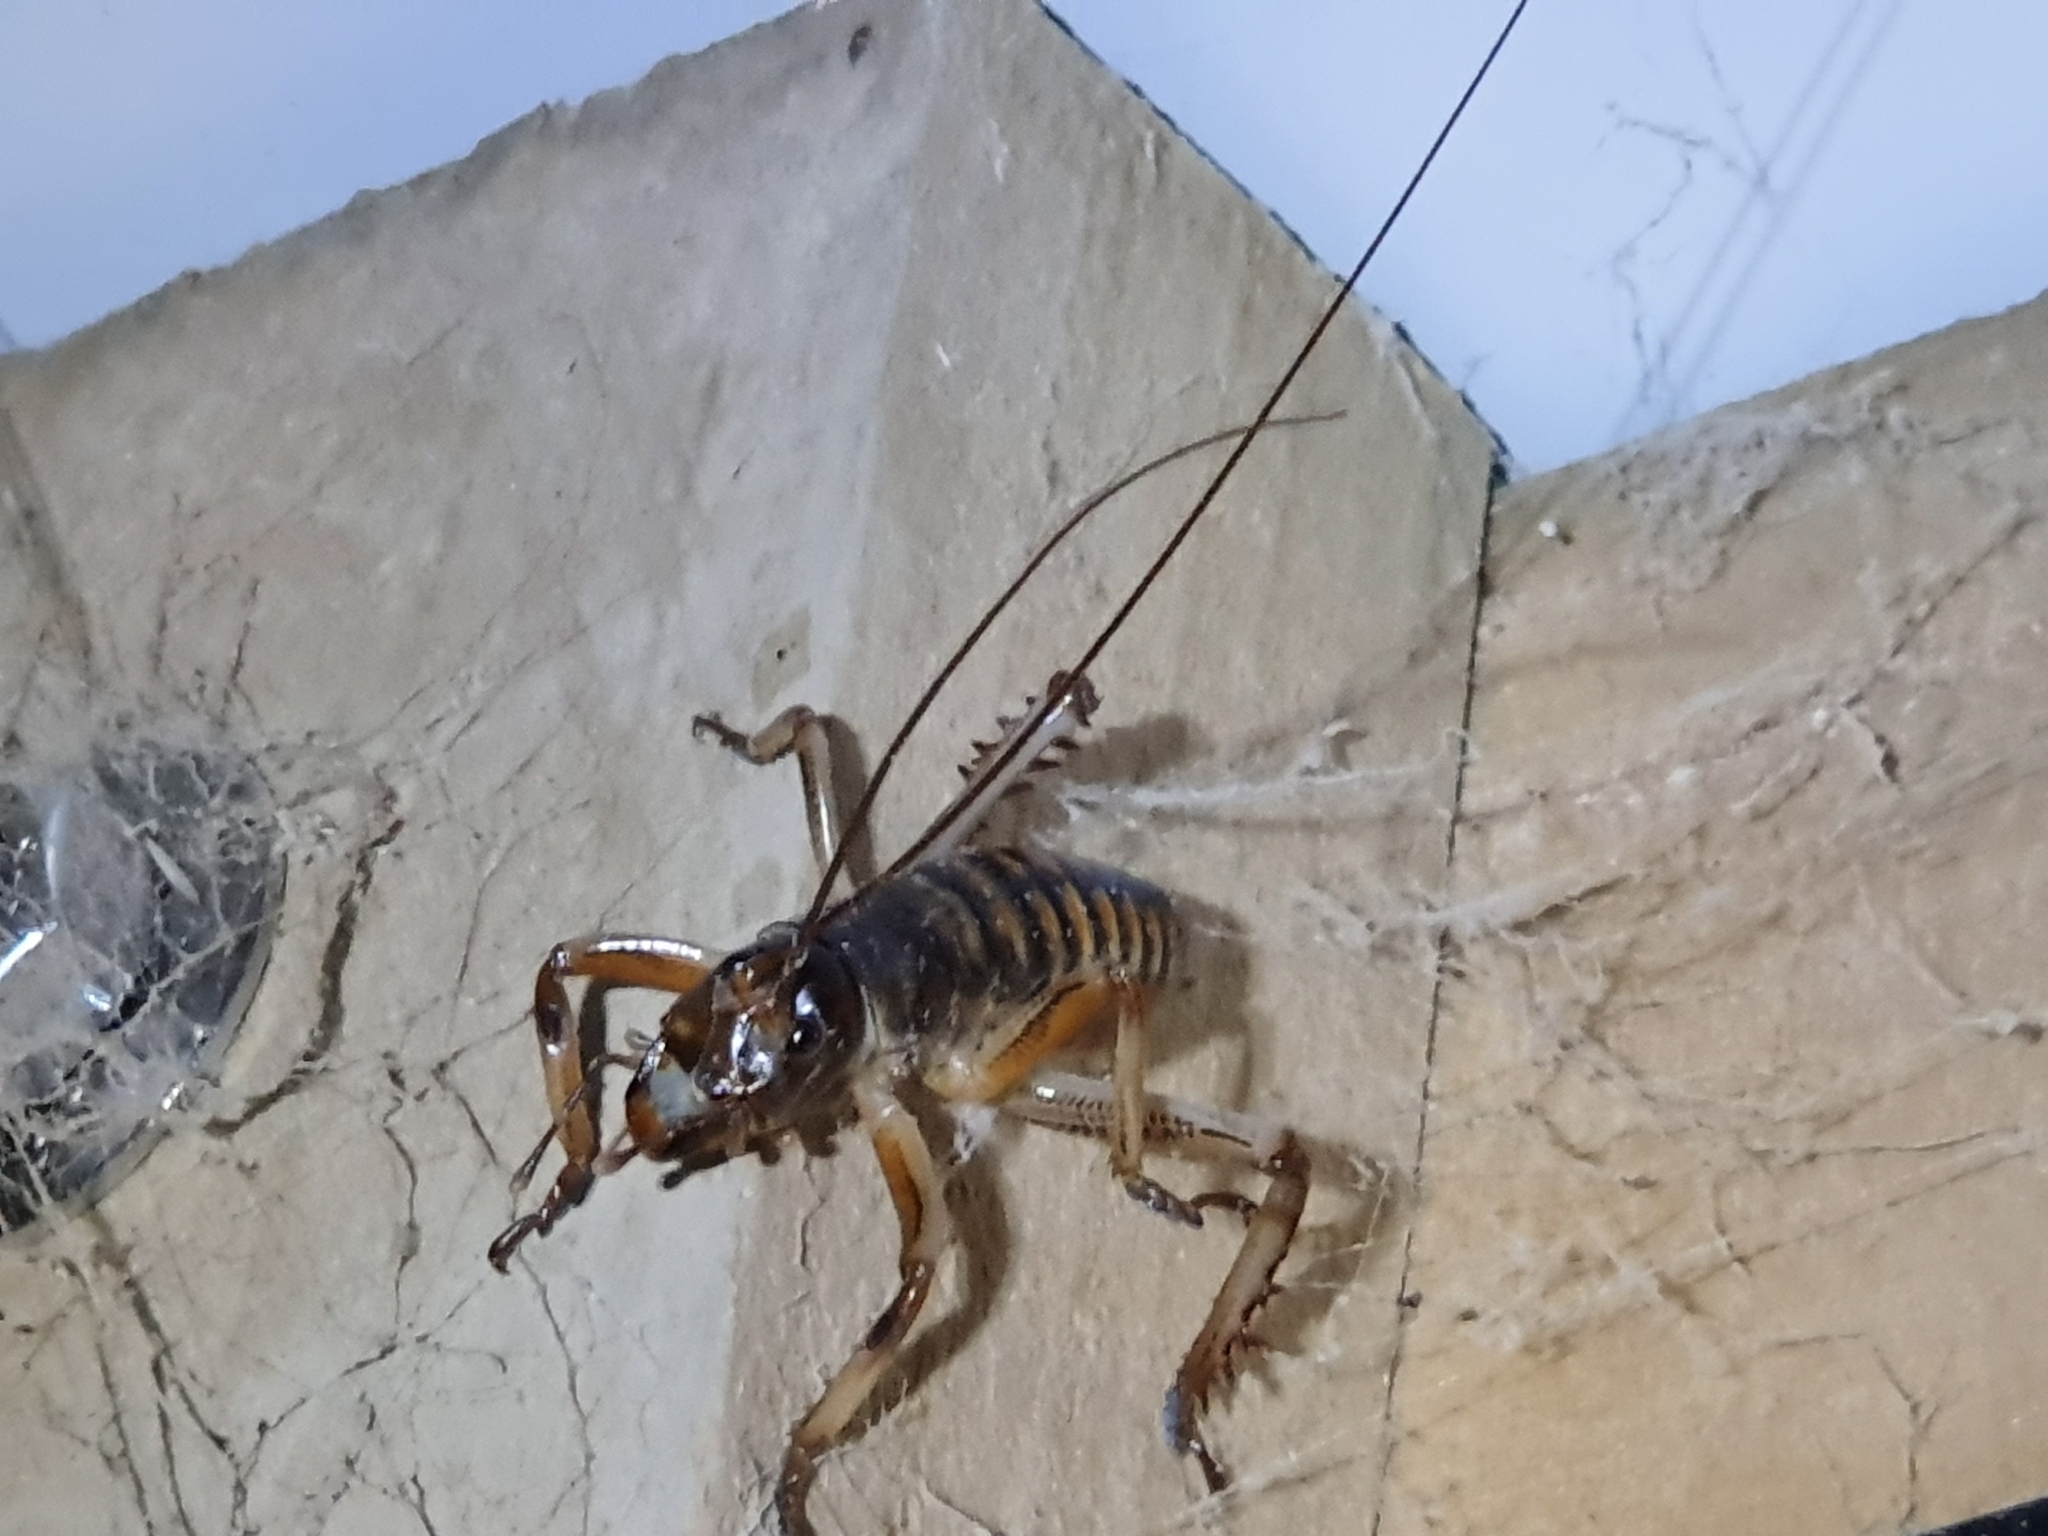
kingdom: Animalia
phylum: Arthropoda
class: Insecta
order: Orthoptera
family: Anostostomatidae
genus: Hemideina
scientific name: Hemideina crassidens
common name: Wellington tree weta
